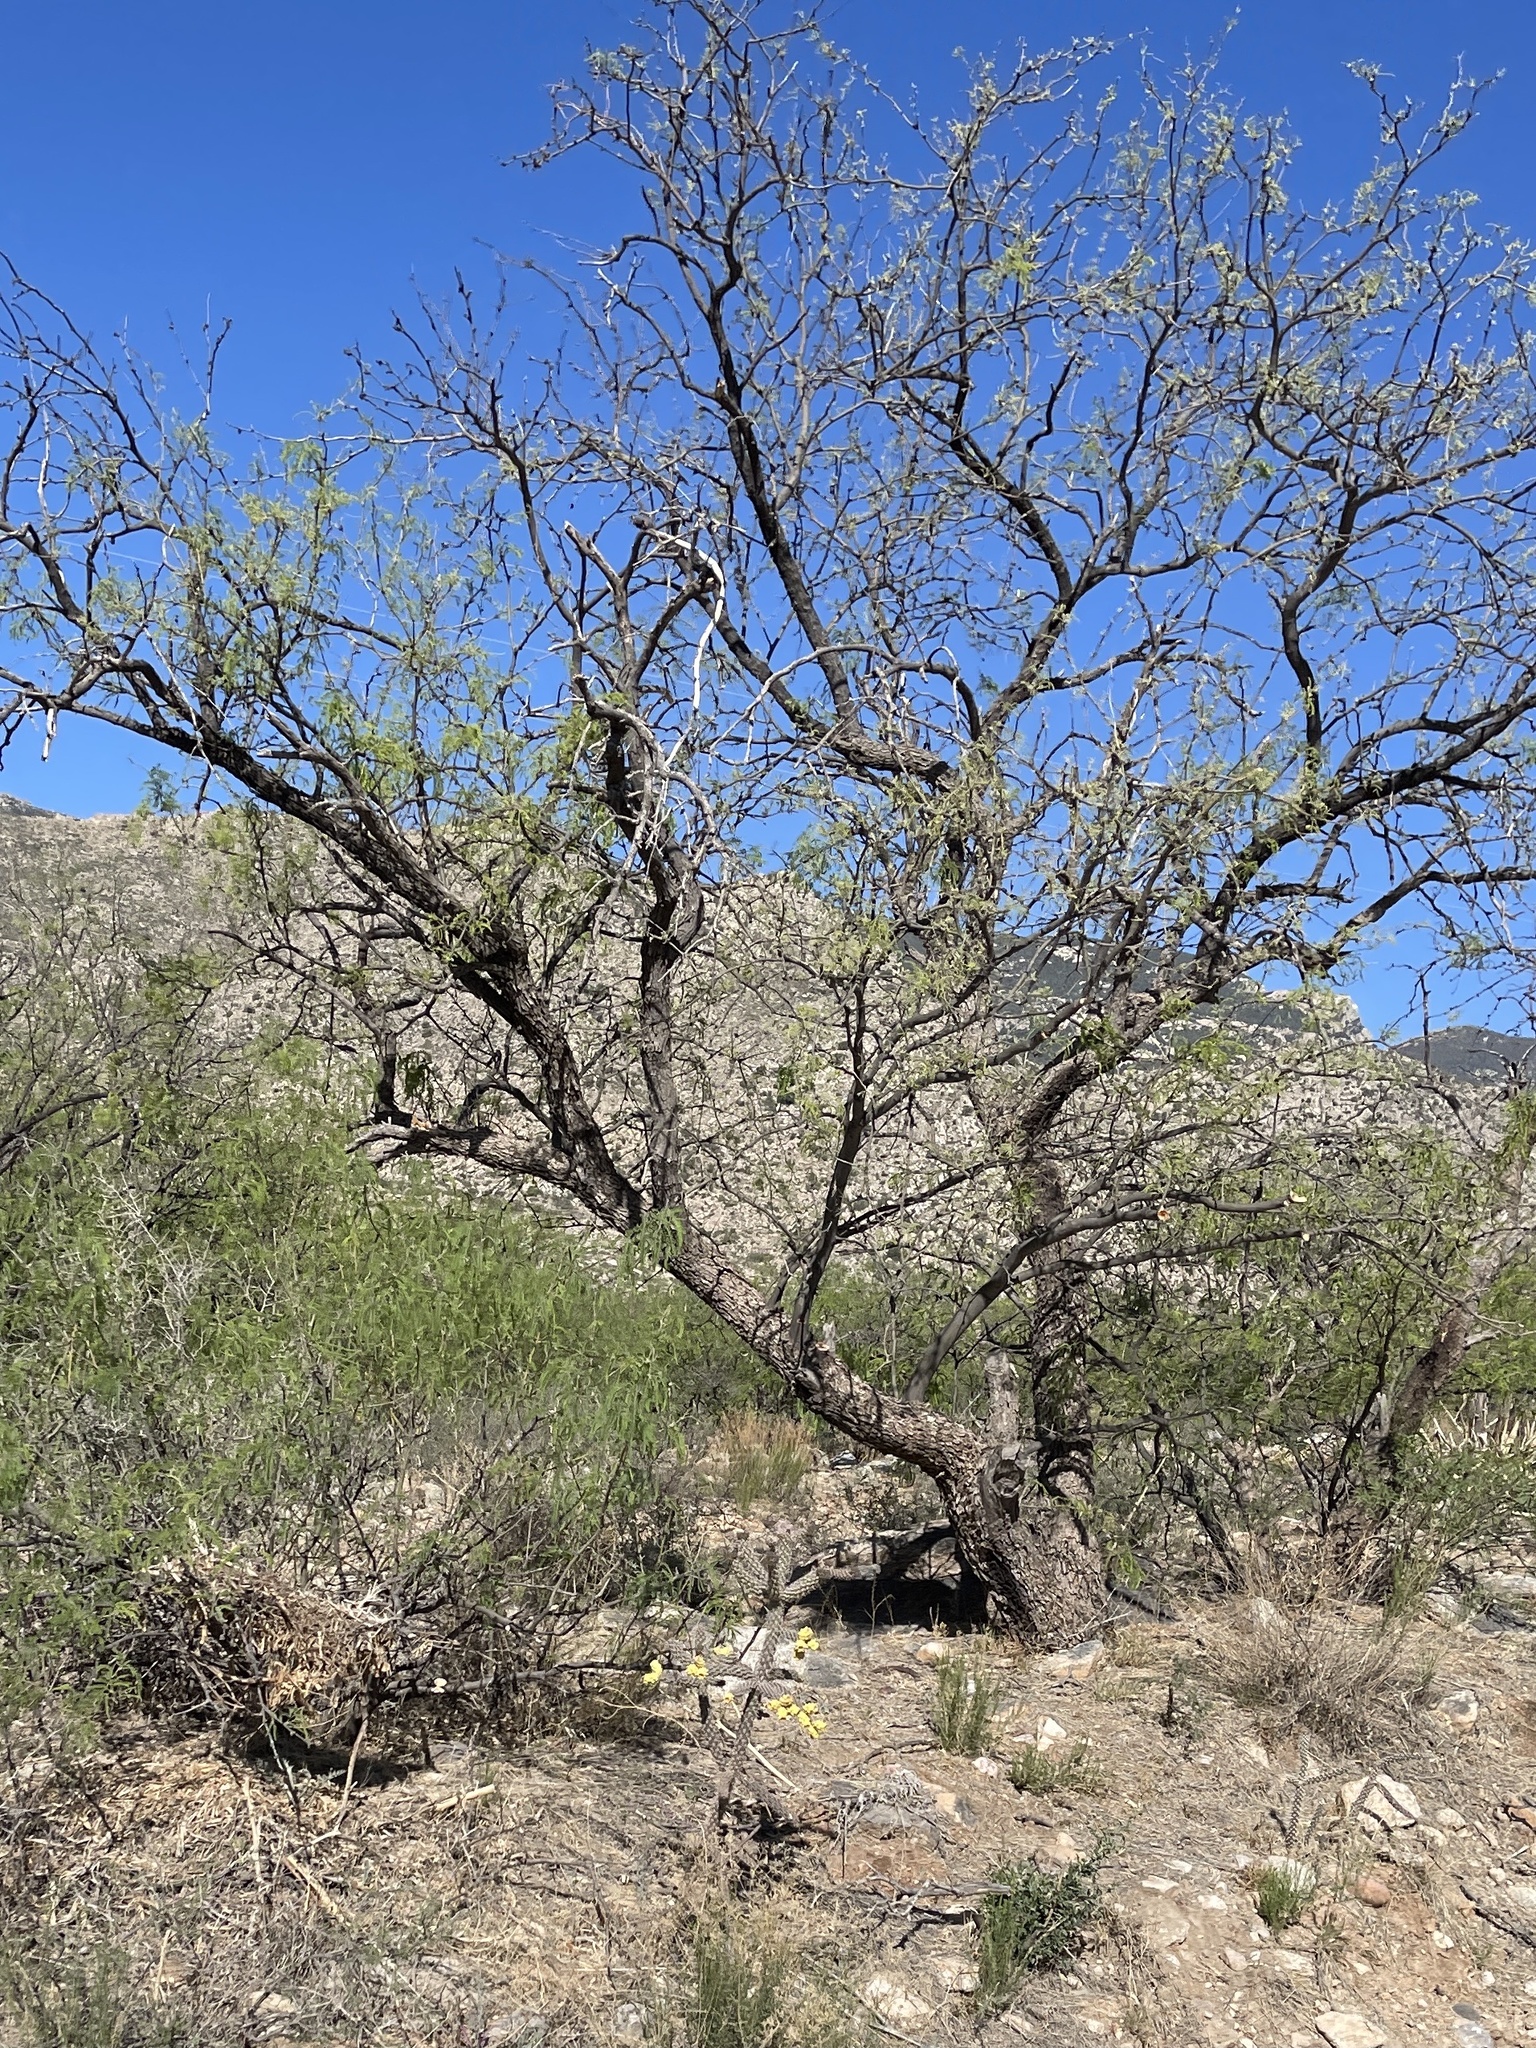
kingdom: Plantae
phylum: Tracheophyta
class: Magnoliopsida
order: Fabales
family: Fabaceae
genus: Prosopis
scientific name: Prosopis velutina
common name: Velvet mesquite
